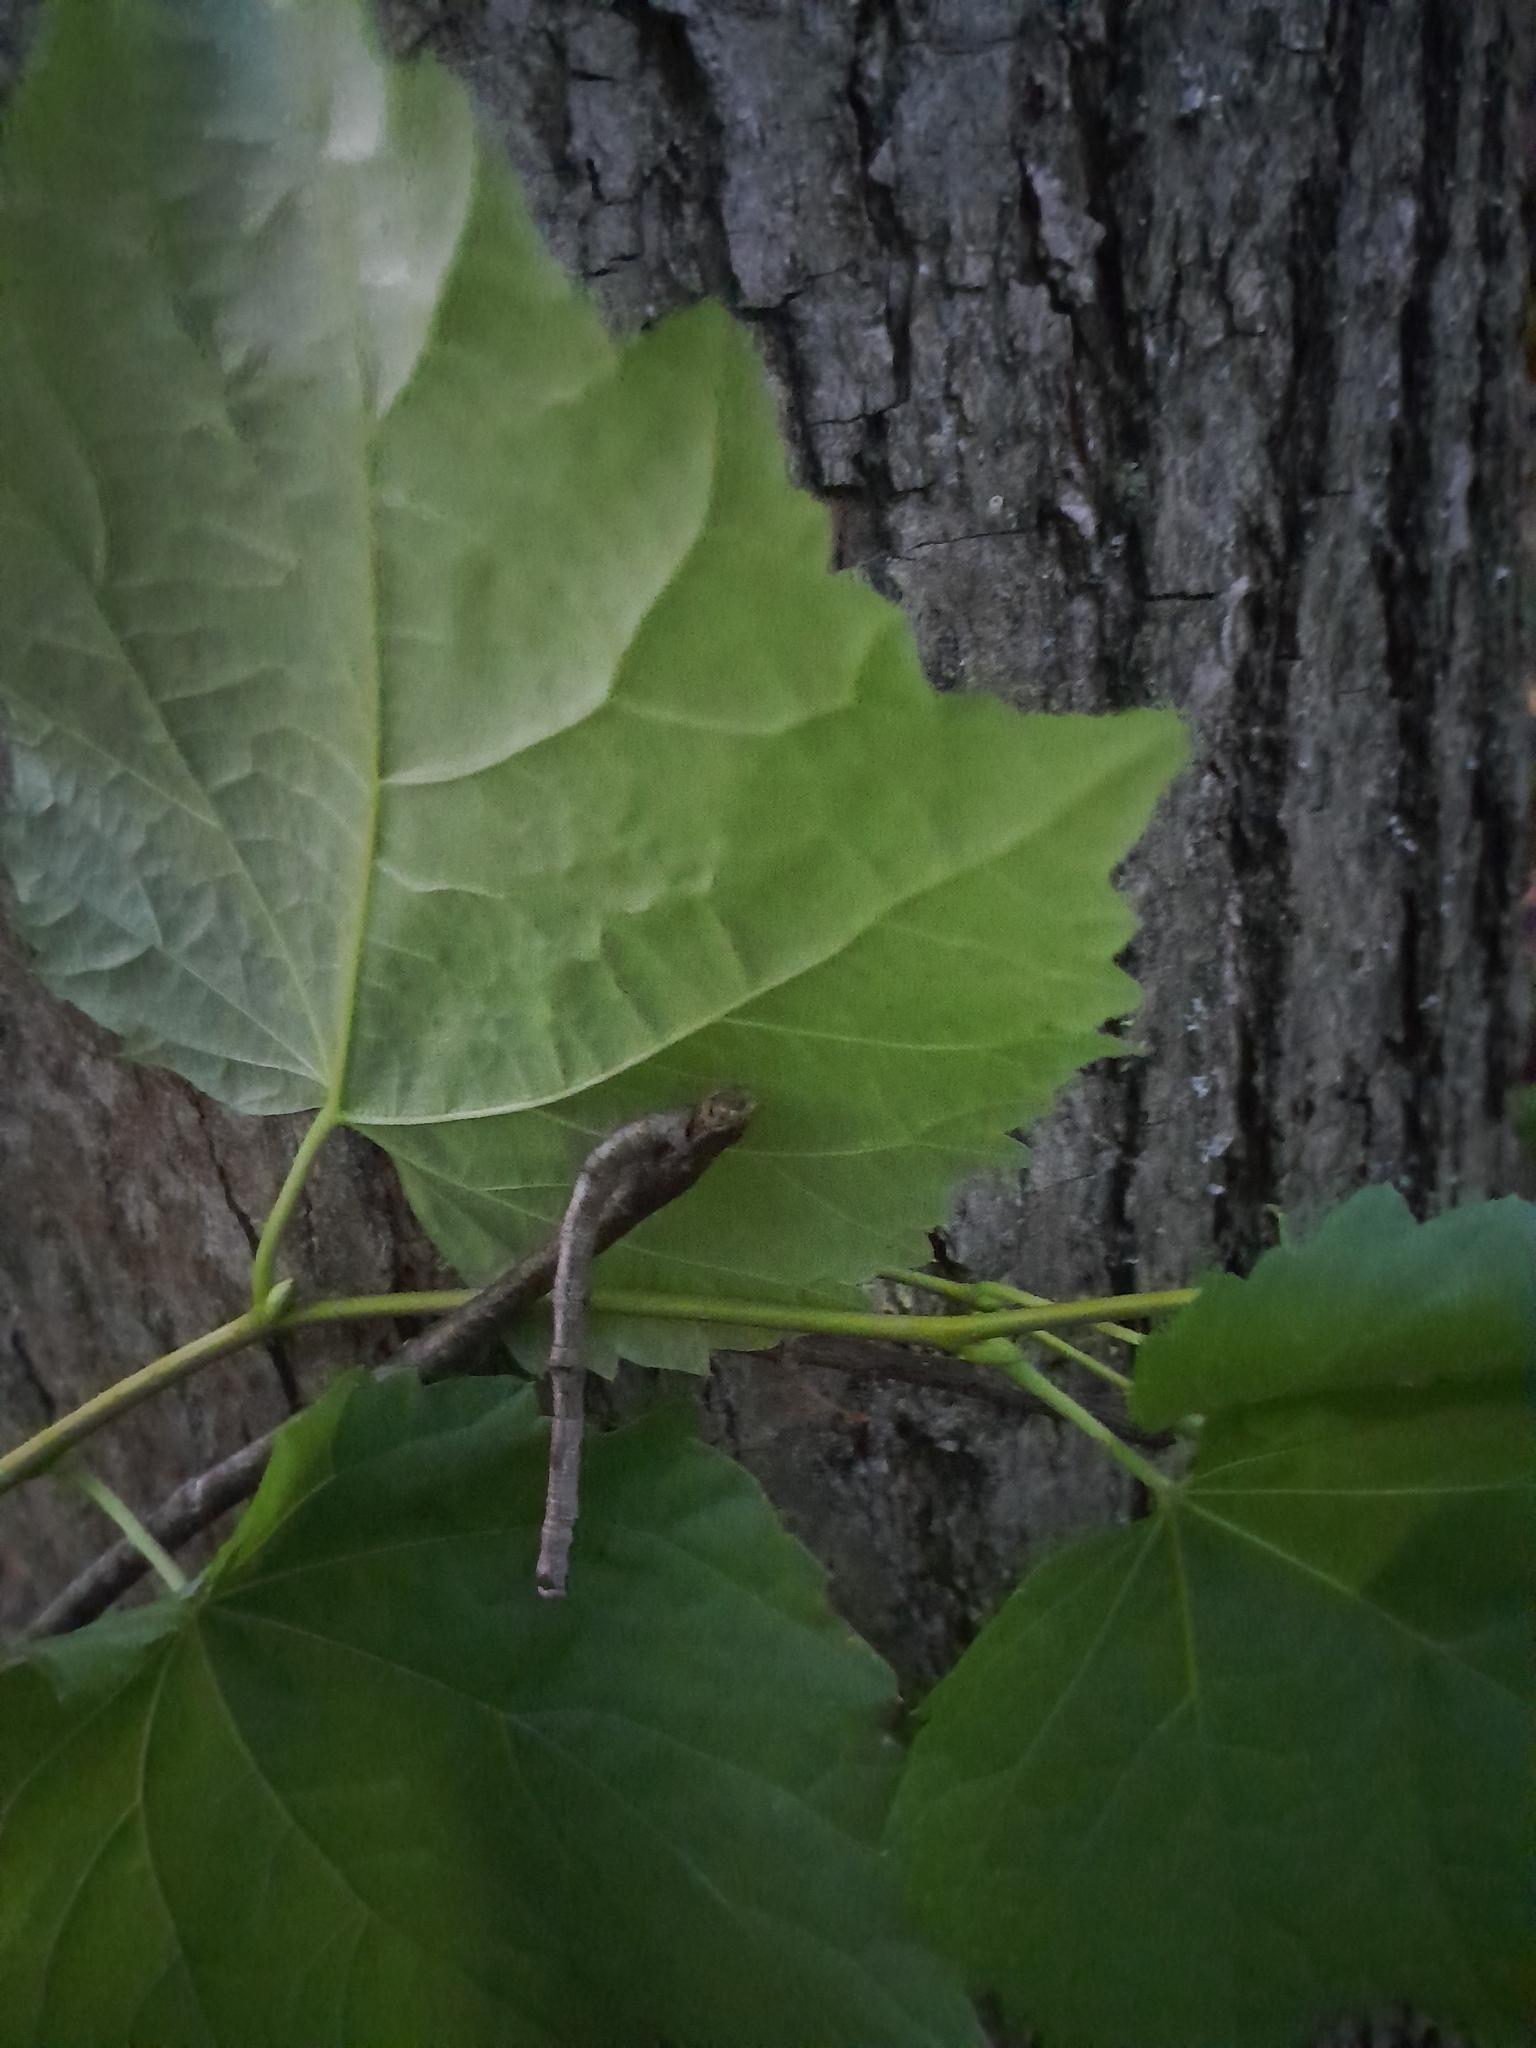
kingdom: Plantae
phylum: Tracheophyta
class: Magnoliopsida
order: Malvales
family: Malvaceae
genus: Tilia
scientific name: Tilia platyphyllos
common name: Large-leaved lime
